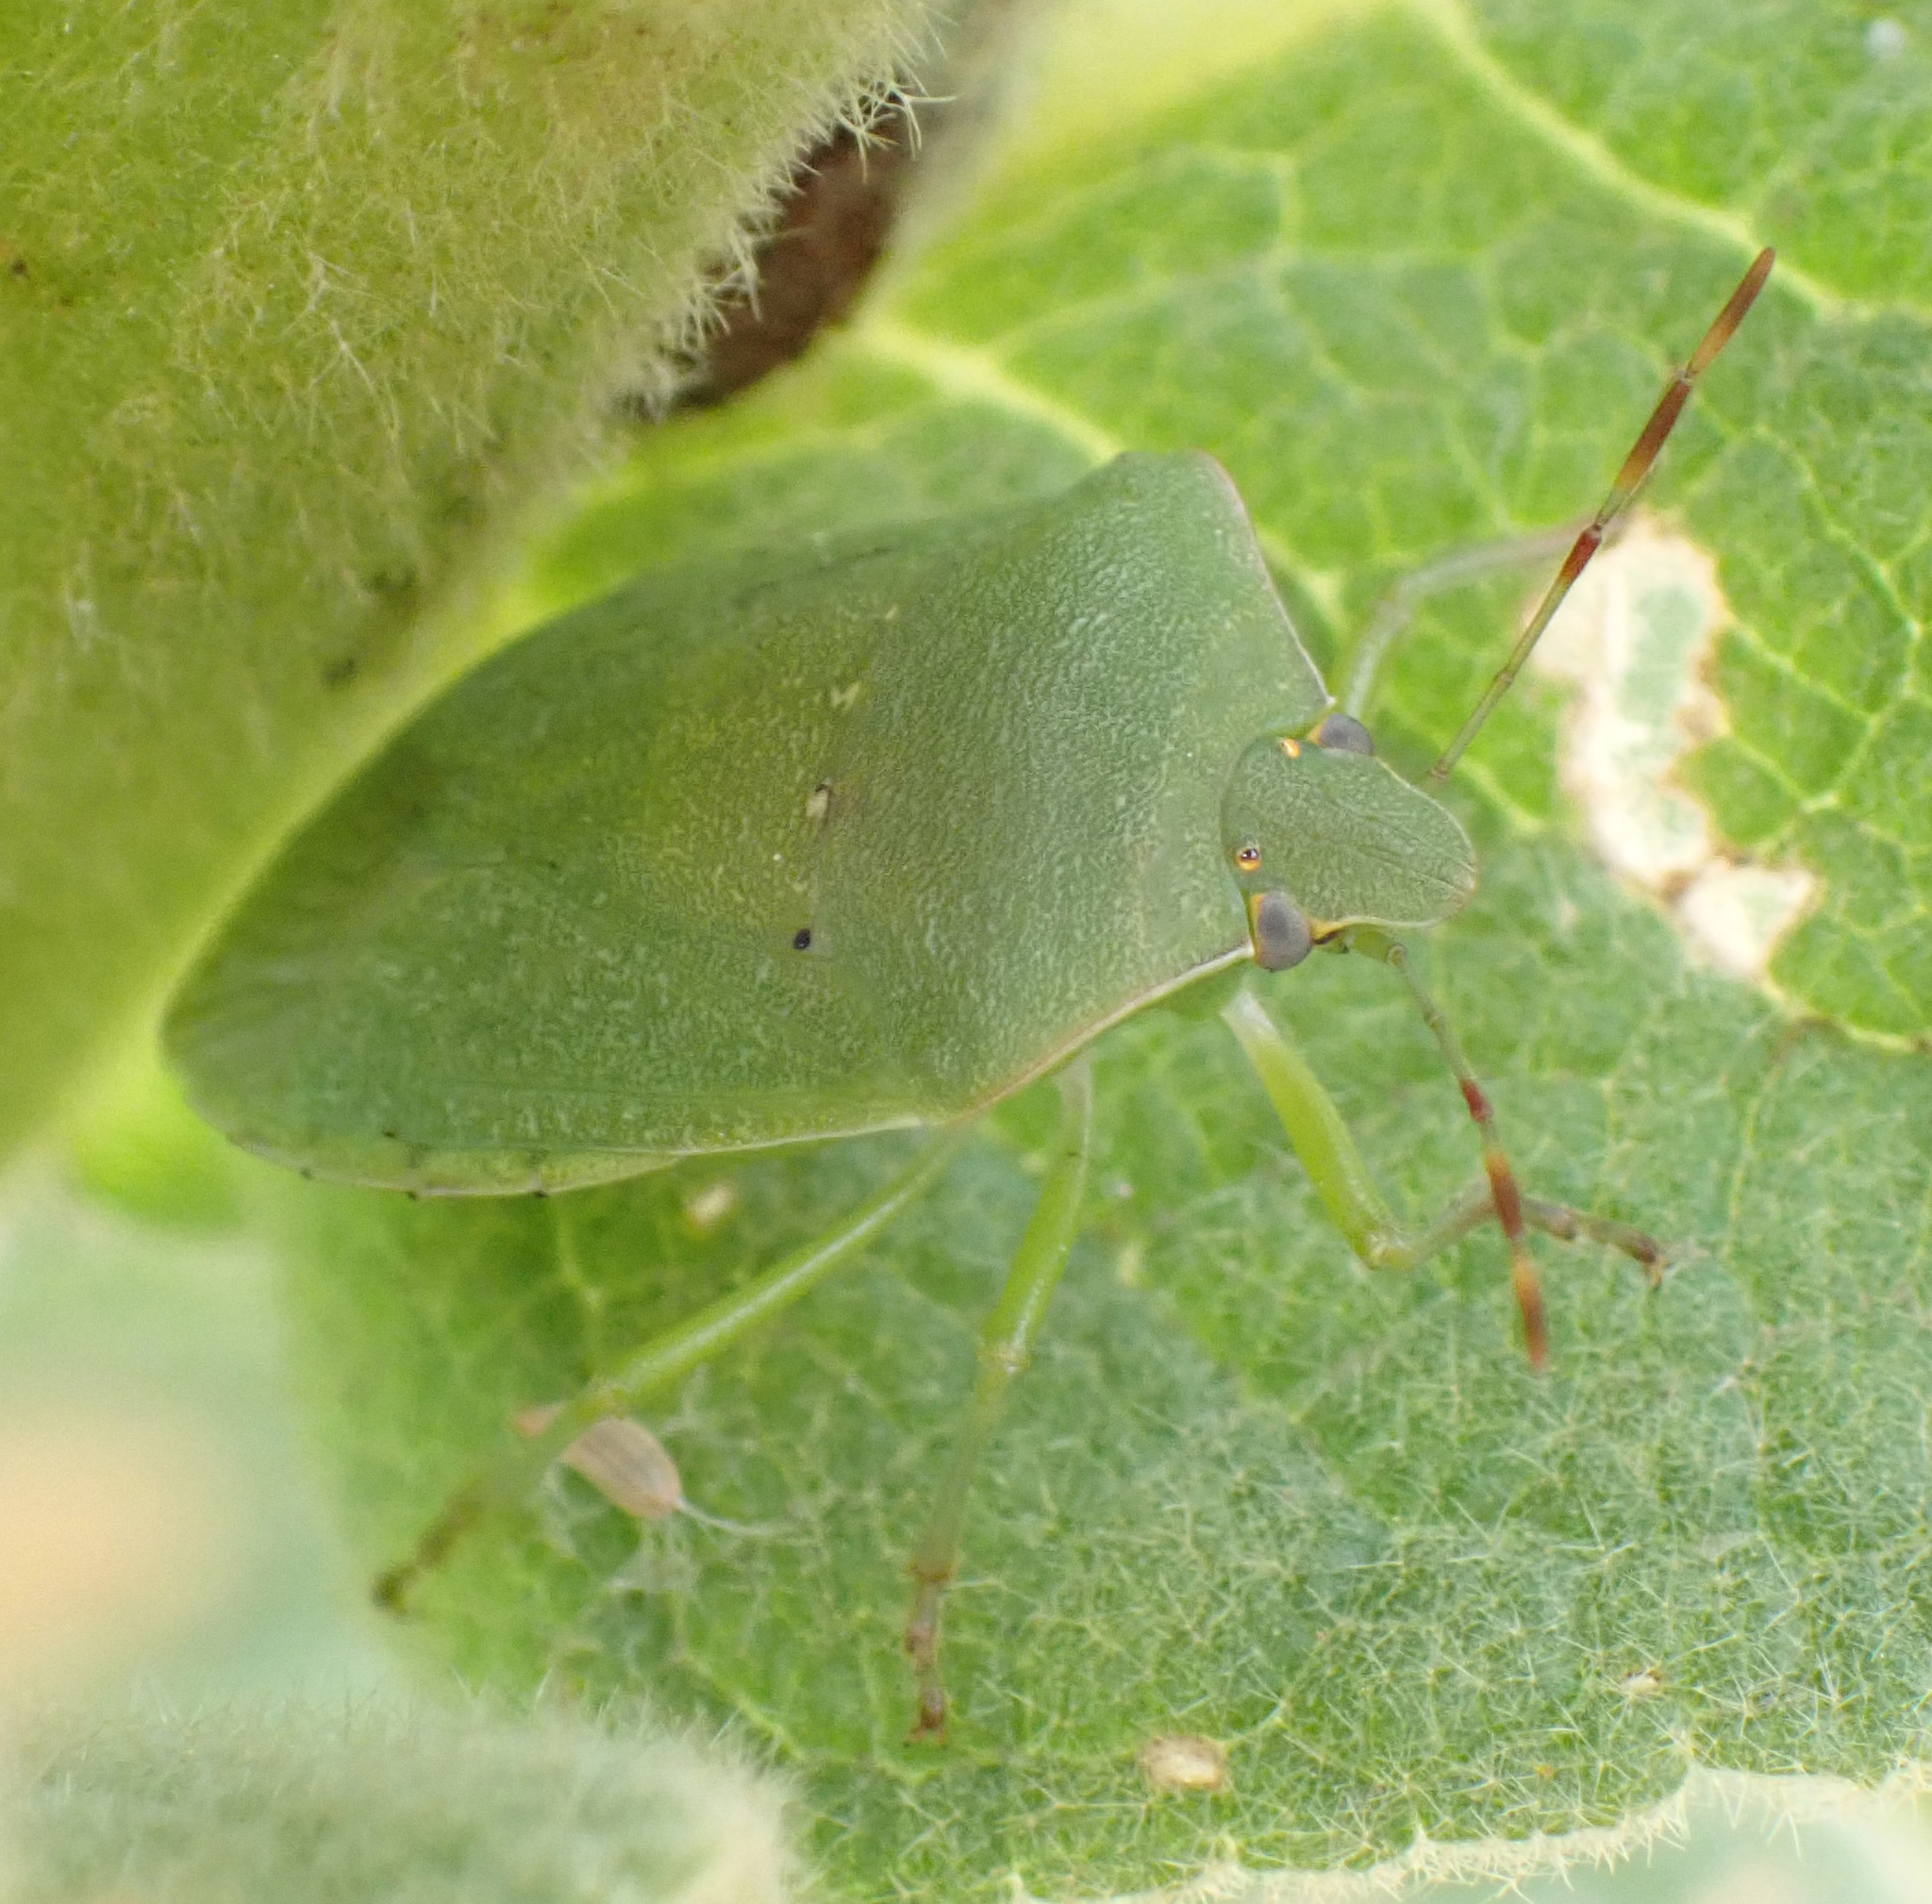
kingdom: Animalia
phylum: Arthropoda
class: Insecta
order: Hemiptera
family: Pentatomidae
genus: Nezara
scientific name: Nezara viridula
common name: Southern green stink bug
